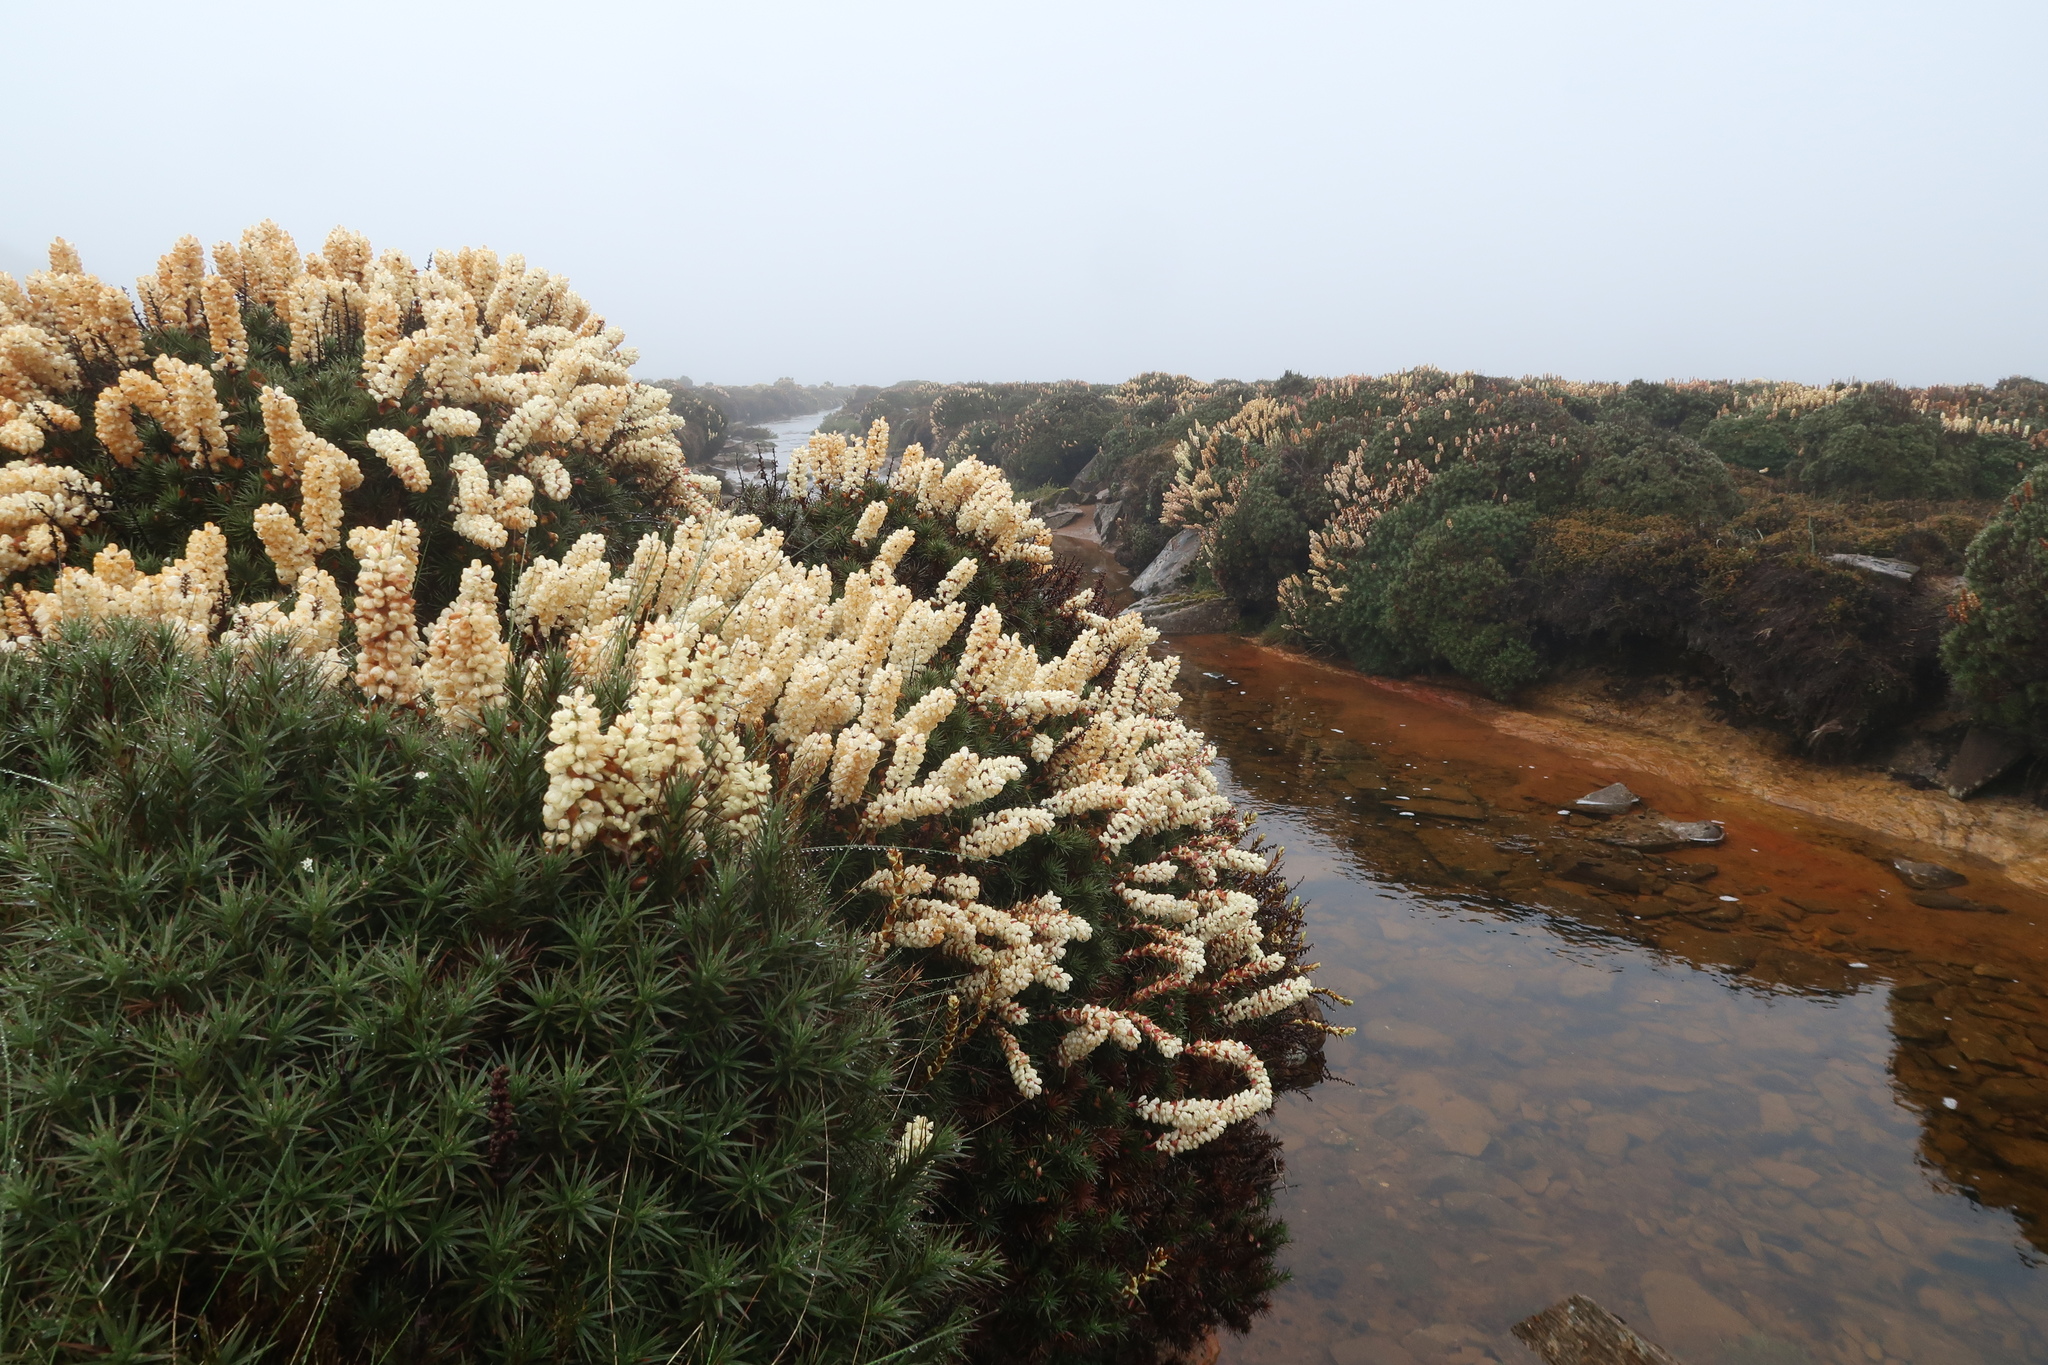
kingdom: Plantae
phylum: Tracheophyta
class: Magnoliopsida
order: Ericales
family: Ericaceae
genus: Dracophyllum
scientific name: Dracophyllum persistentifolium
